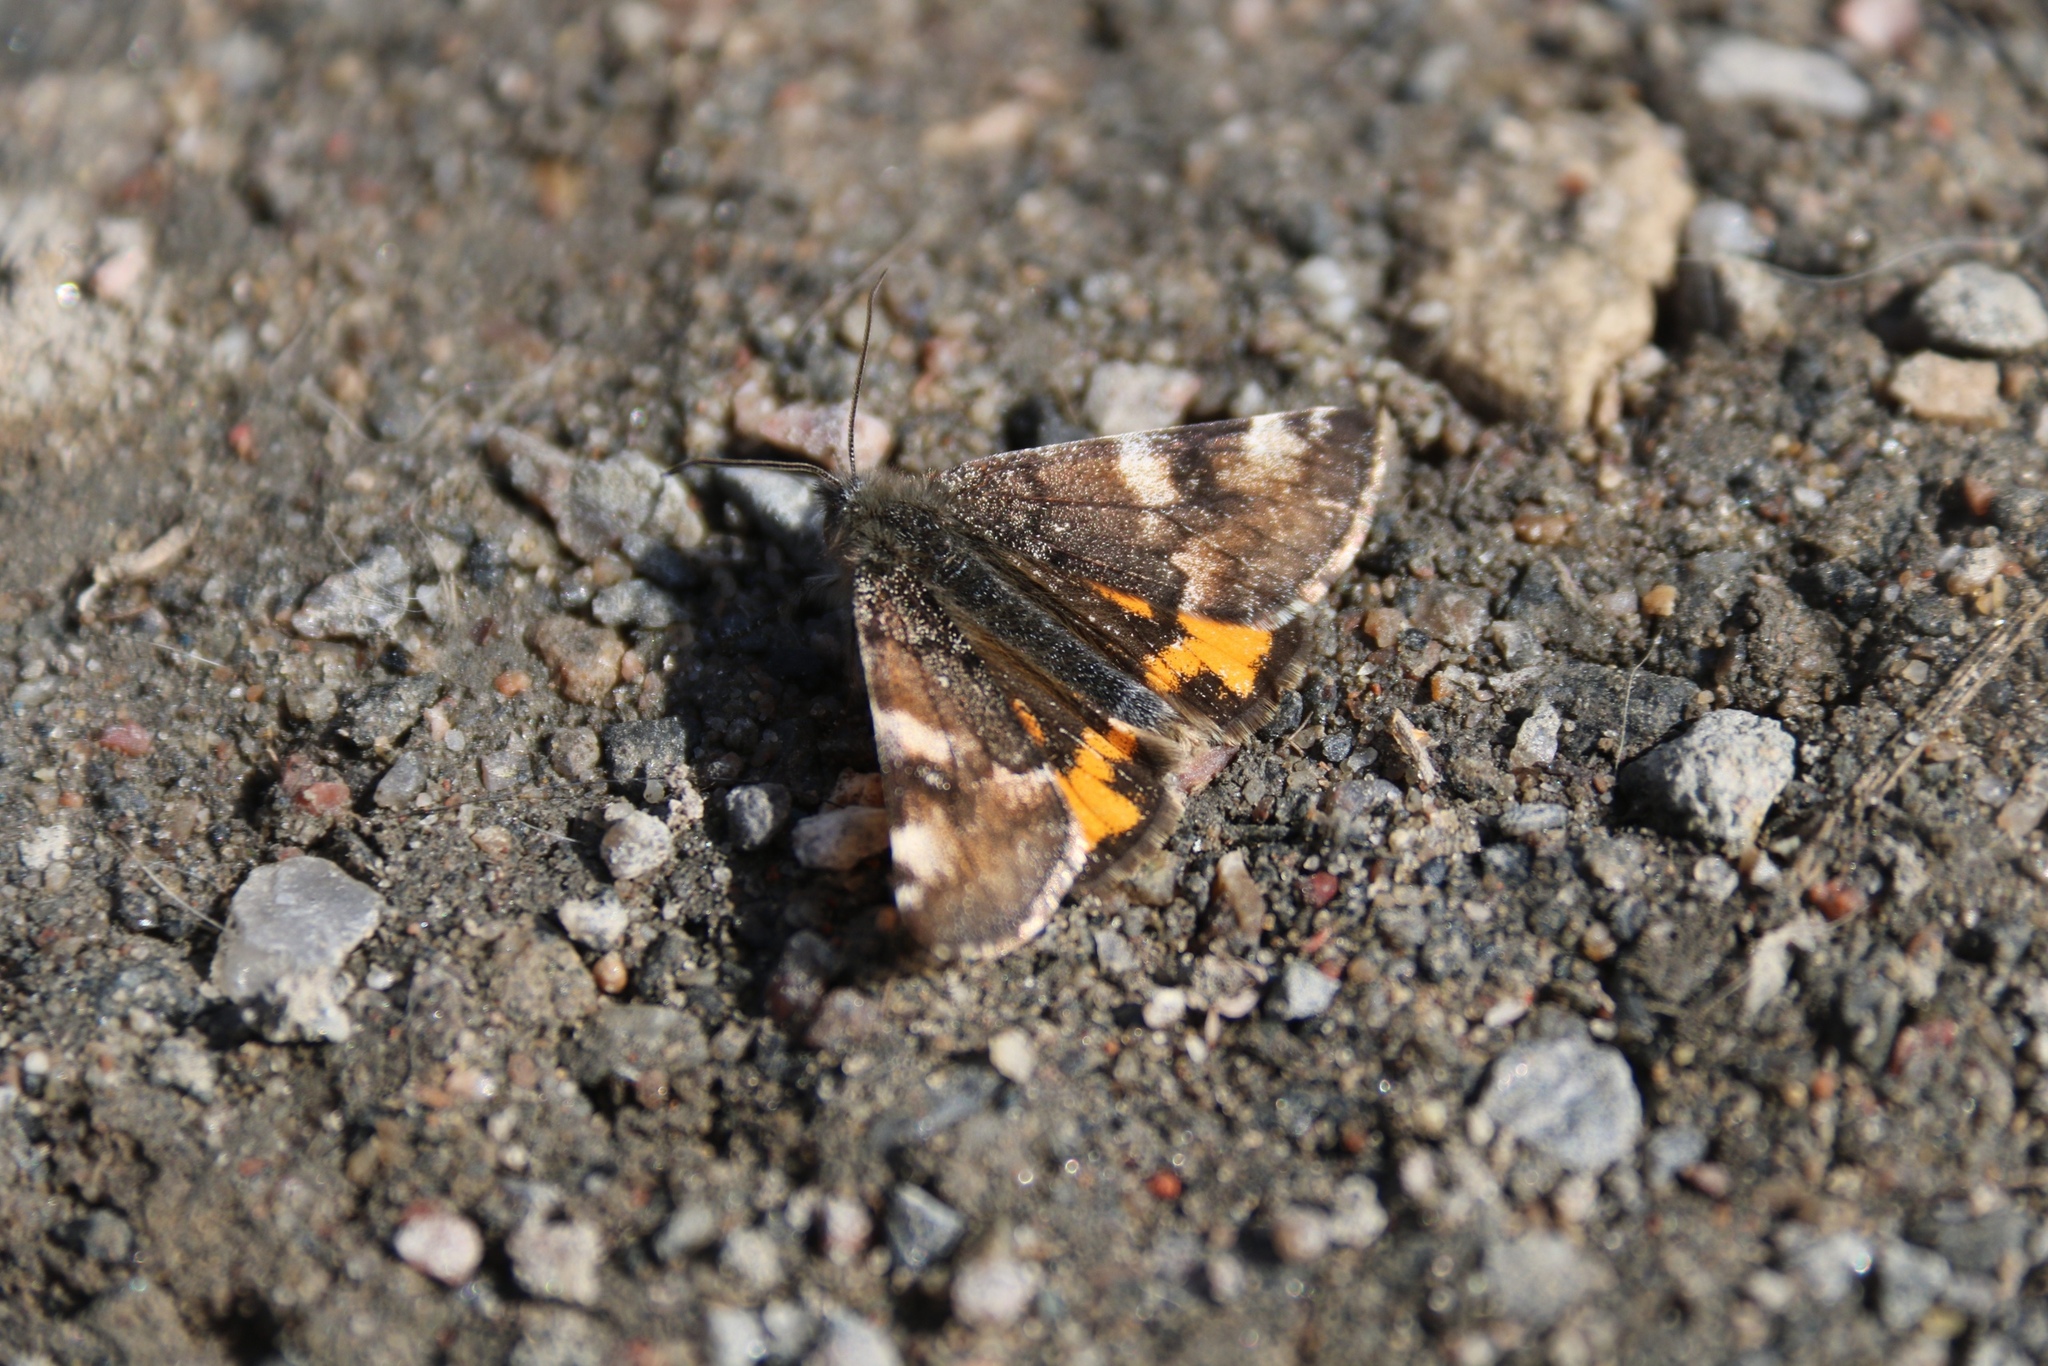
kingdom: Animalia
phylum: Arthropoda
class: Insecta
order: Lepidoptera
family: Geometridae
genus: Archiearis
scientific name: Archiearis parthenias
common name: Orange underwing
